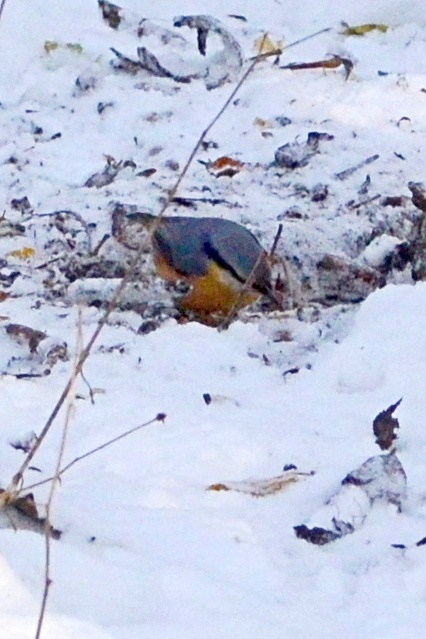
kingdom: Animalia
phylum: Chordata
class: Aves
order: Passeriformes
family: Sittidae
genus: Sitta
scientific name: Sitta europaea
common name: Eurasian nuthatch
